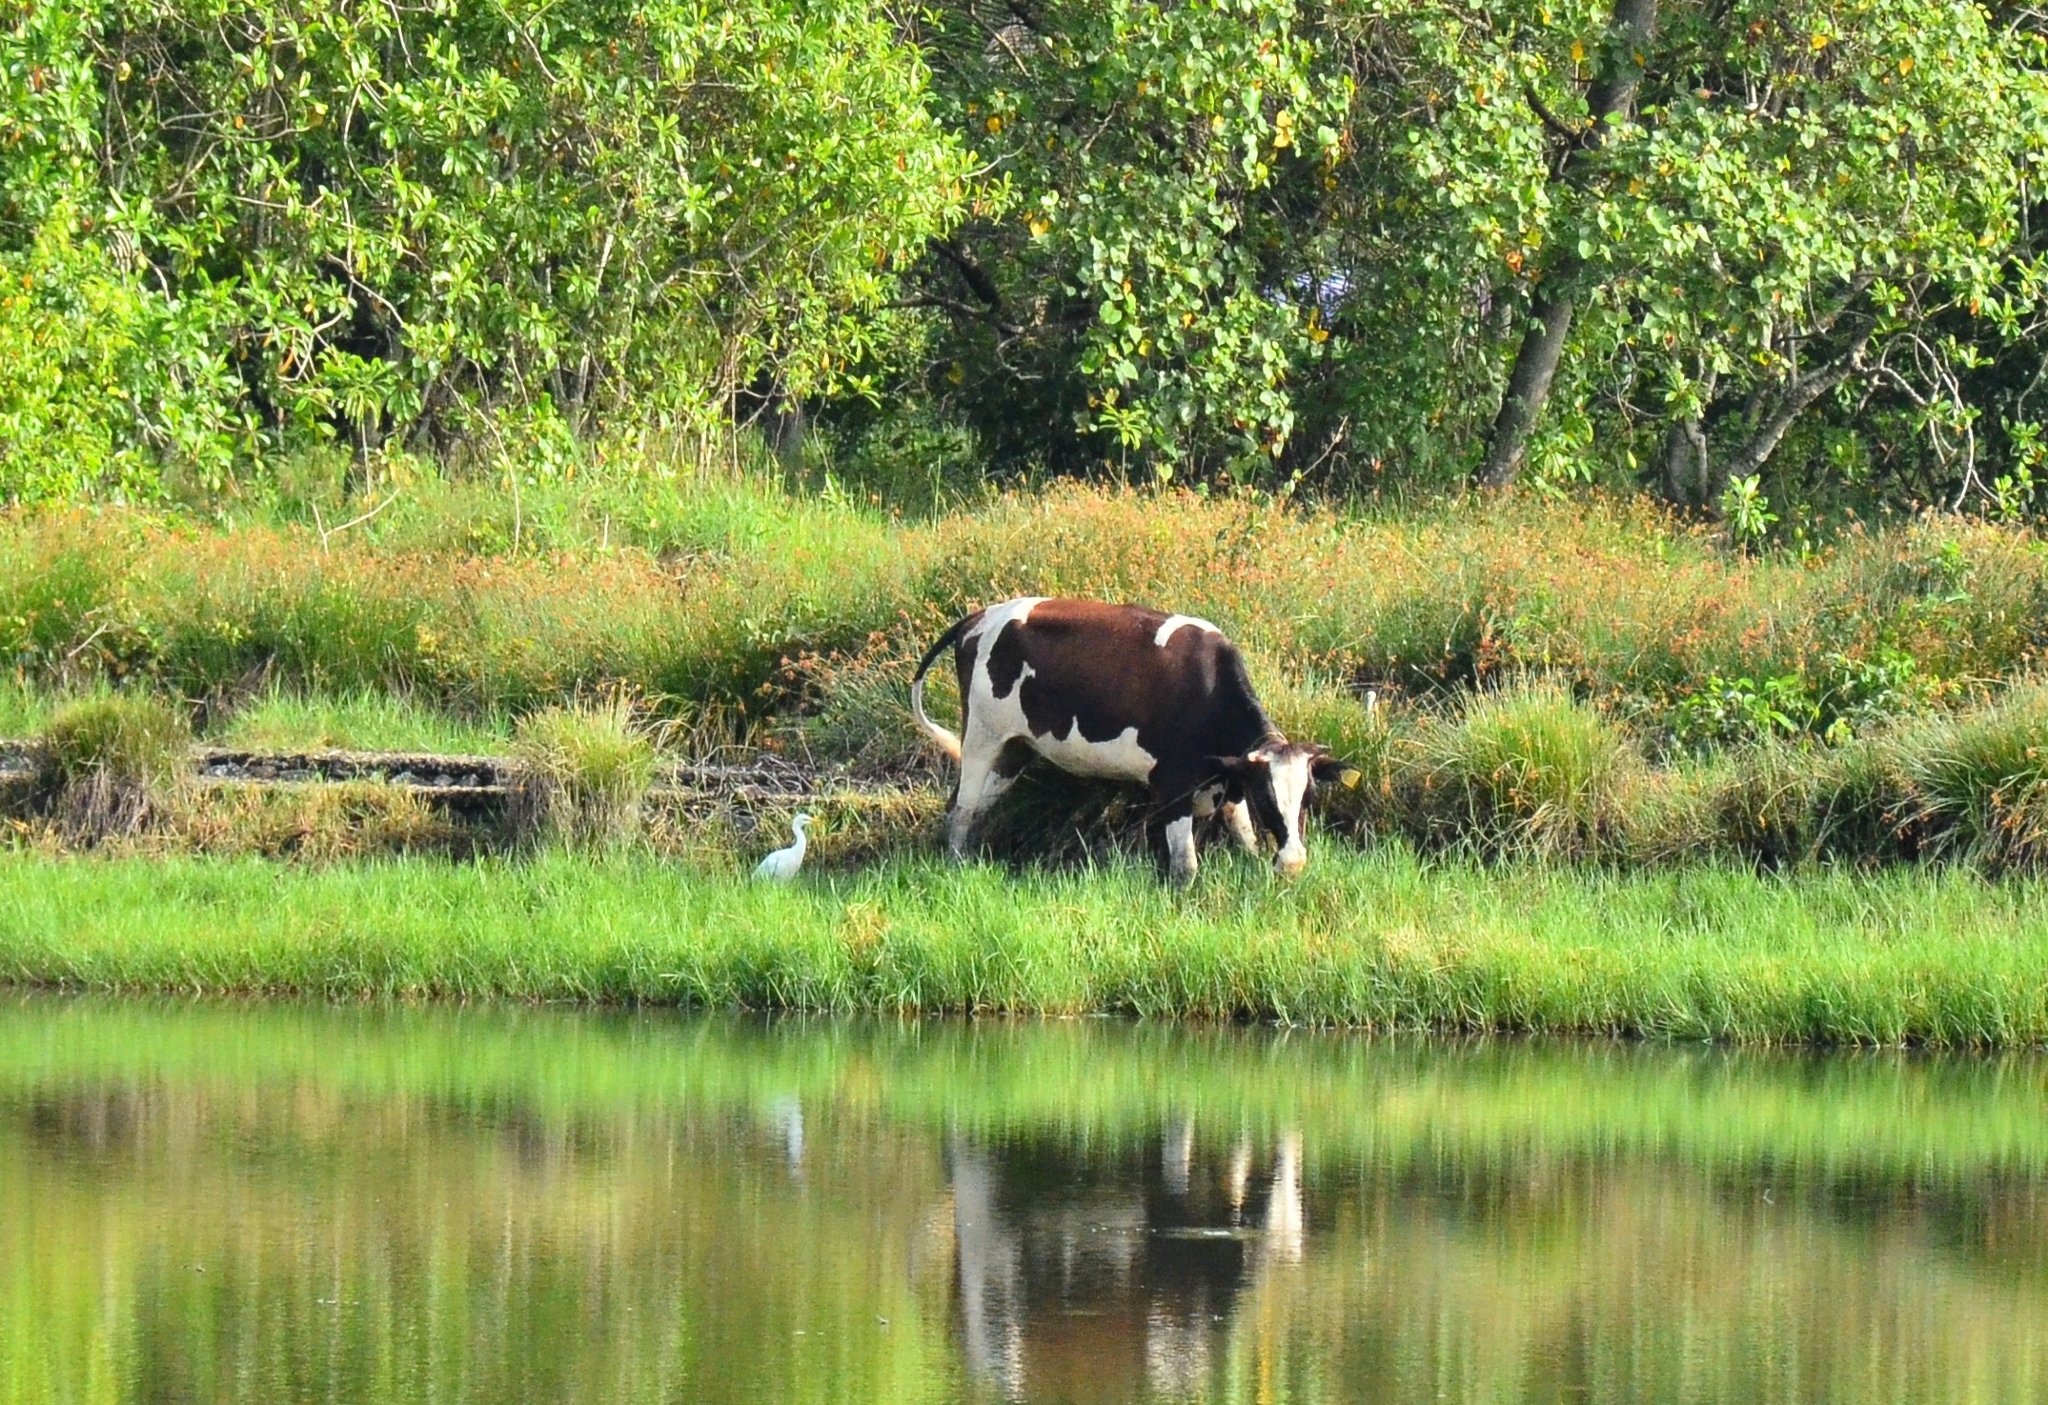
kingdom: Animalia
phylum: Chordata
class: Aves
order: Pelecaniformes
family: Ardeidae
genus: Bubulcus
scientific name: Bubulcus coromandus
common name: Eastern cattle egret
